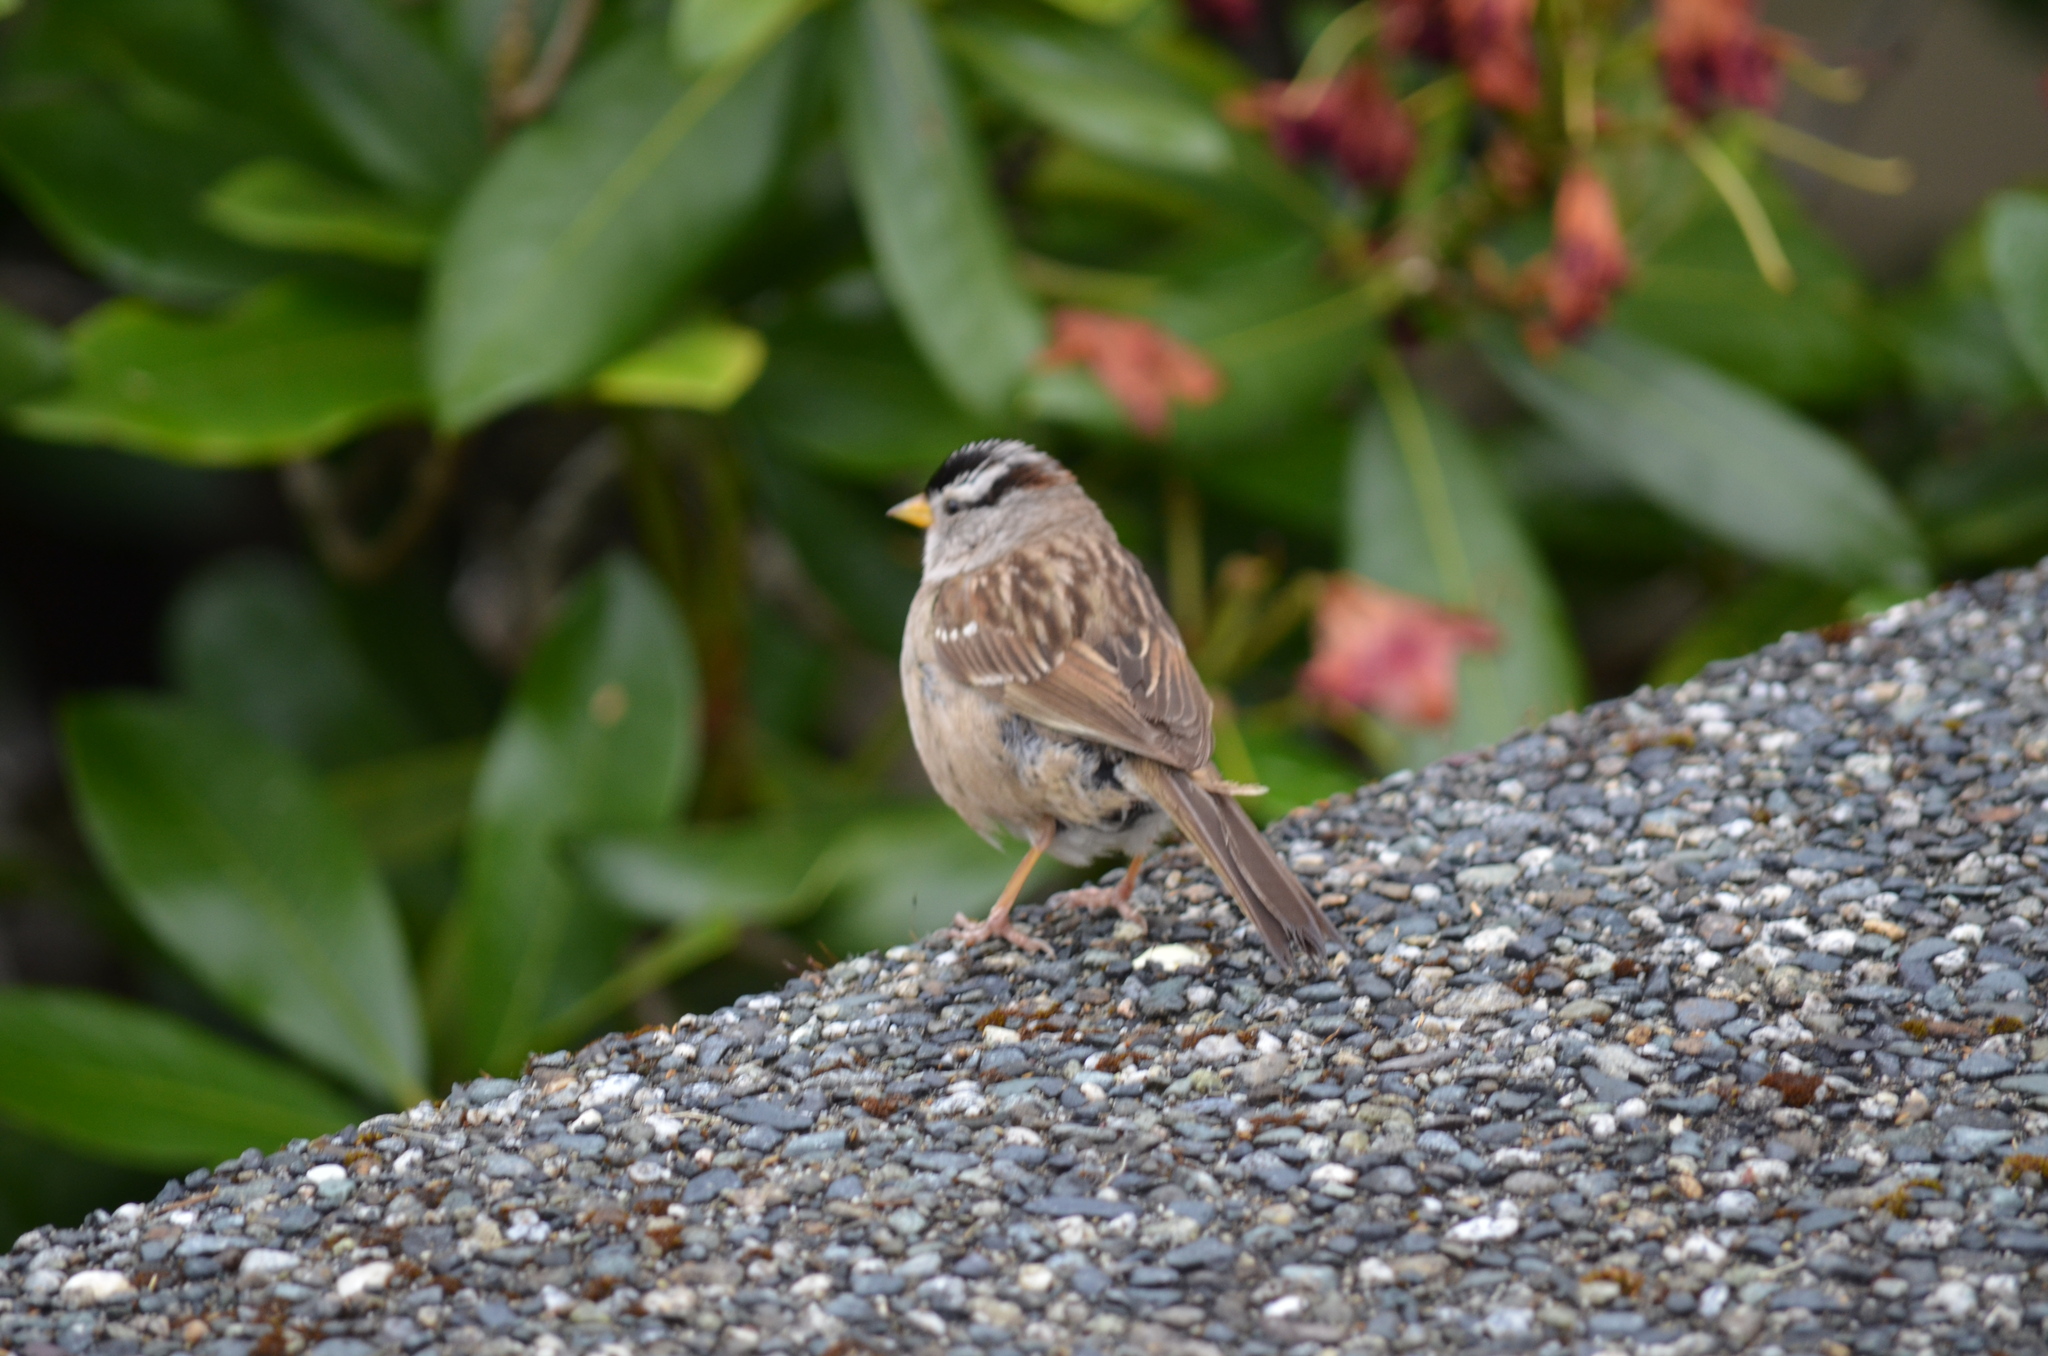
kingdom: Animalia
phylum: Chordata
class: Aves
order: Passeriformes
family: Passerellidae
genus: Zonotrichia
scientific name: Zonotrichia leucophrys
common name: White-crowned sparrow
